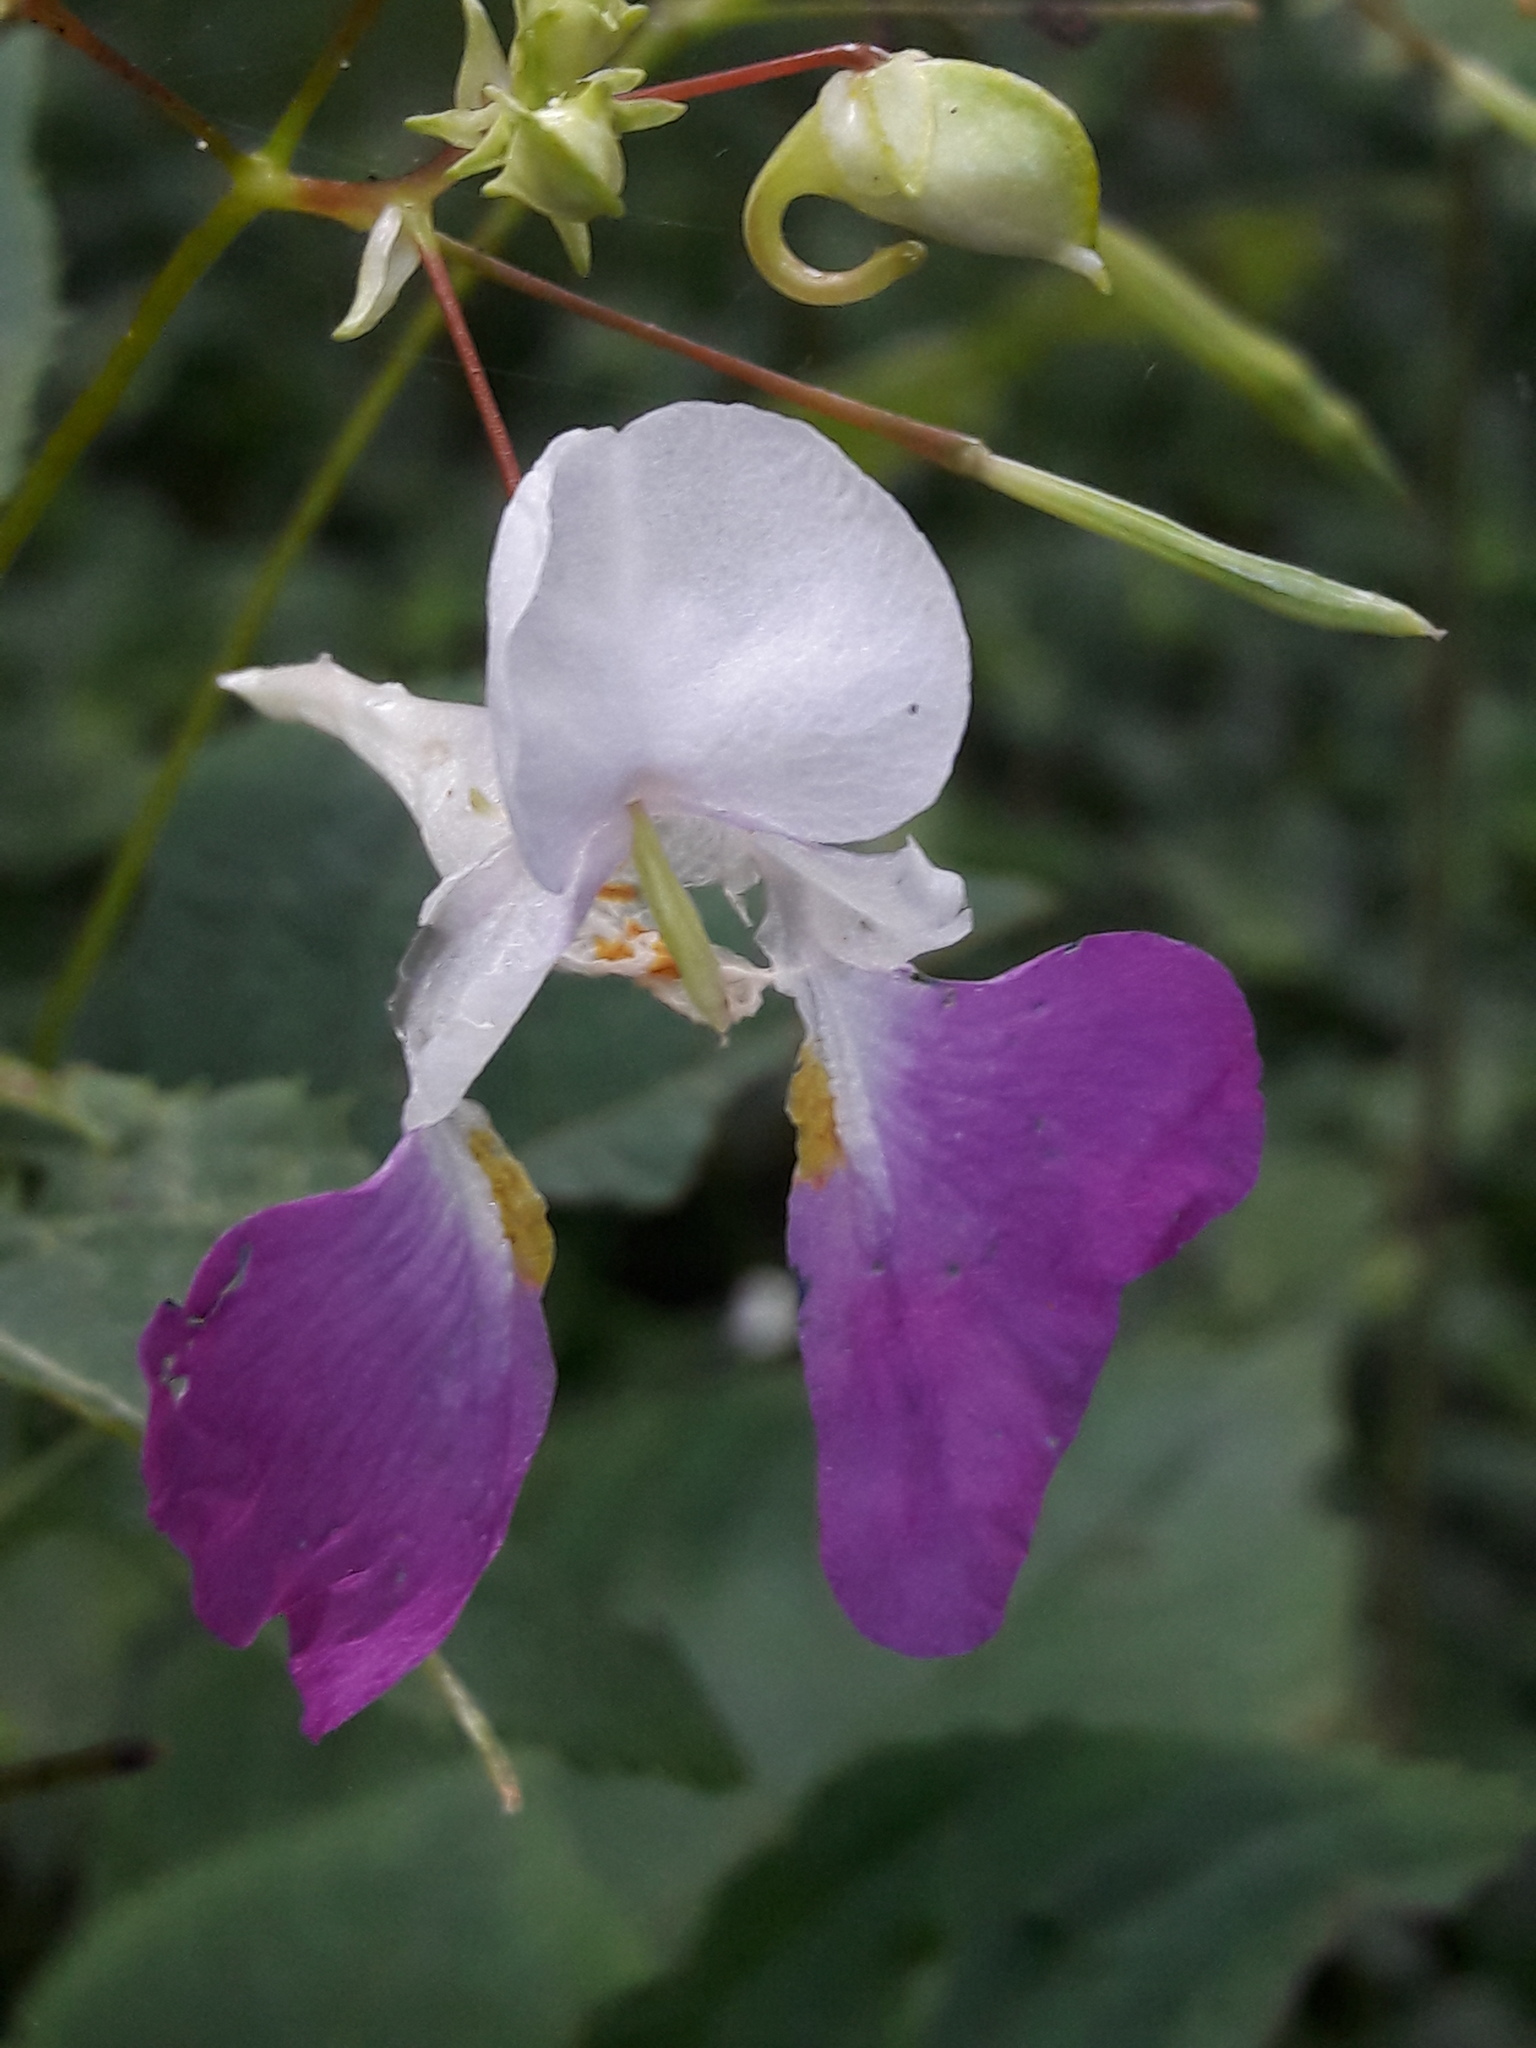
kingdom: Plantae
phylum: Tracheophyta
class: Magnoliopsida
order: Ericales
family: Balsaminaceae
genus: Impatiens
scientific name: Impatiens balfourii
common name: Balfour's touch-me-not
